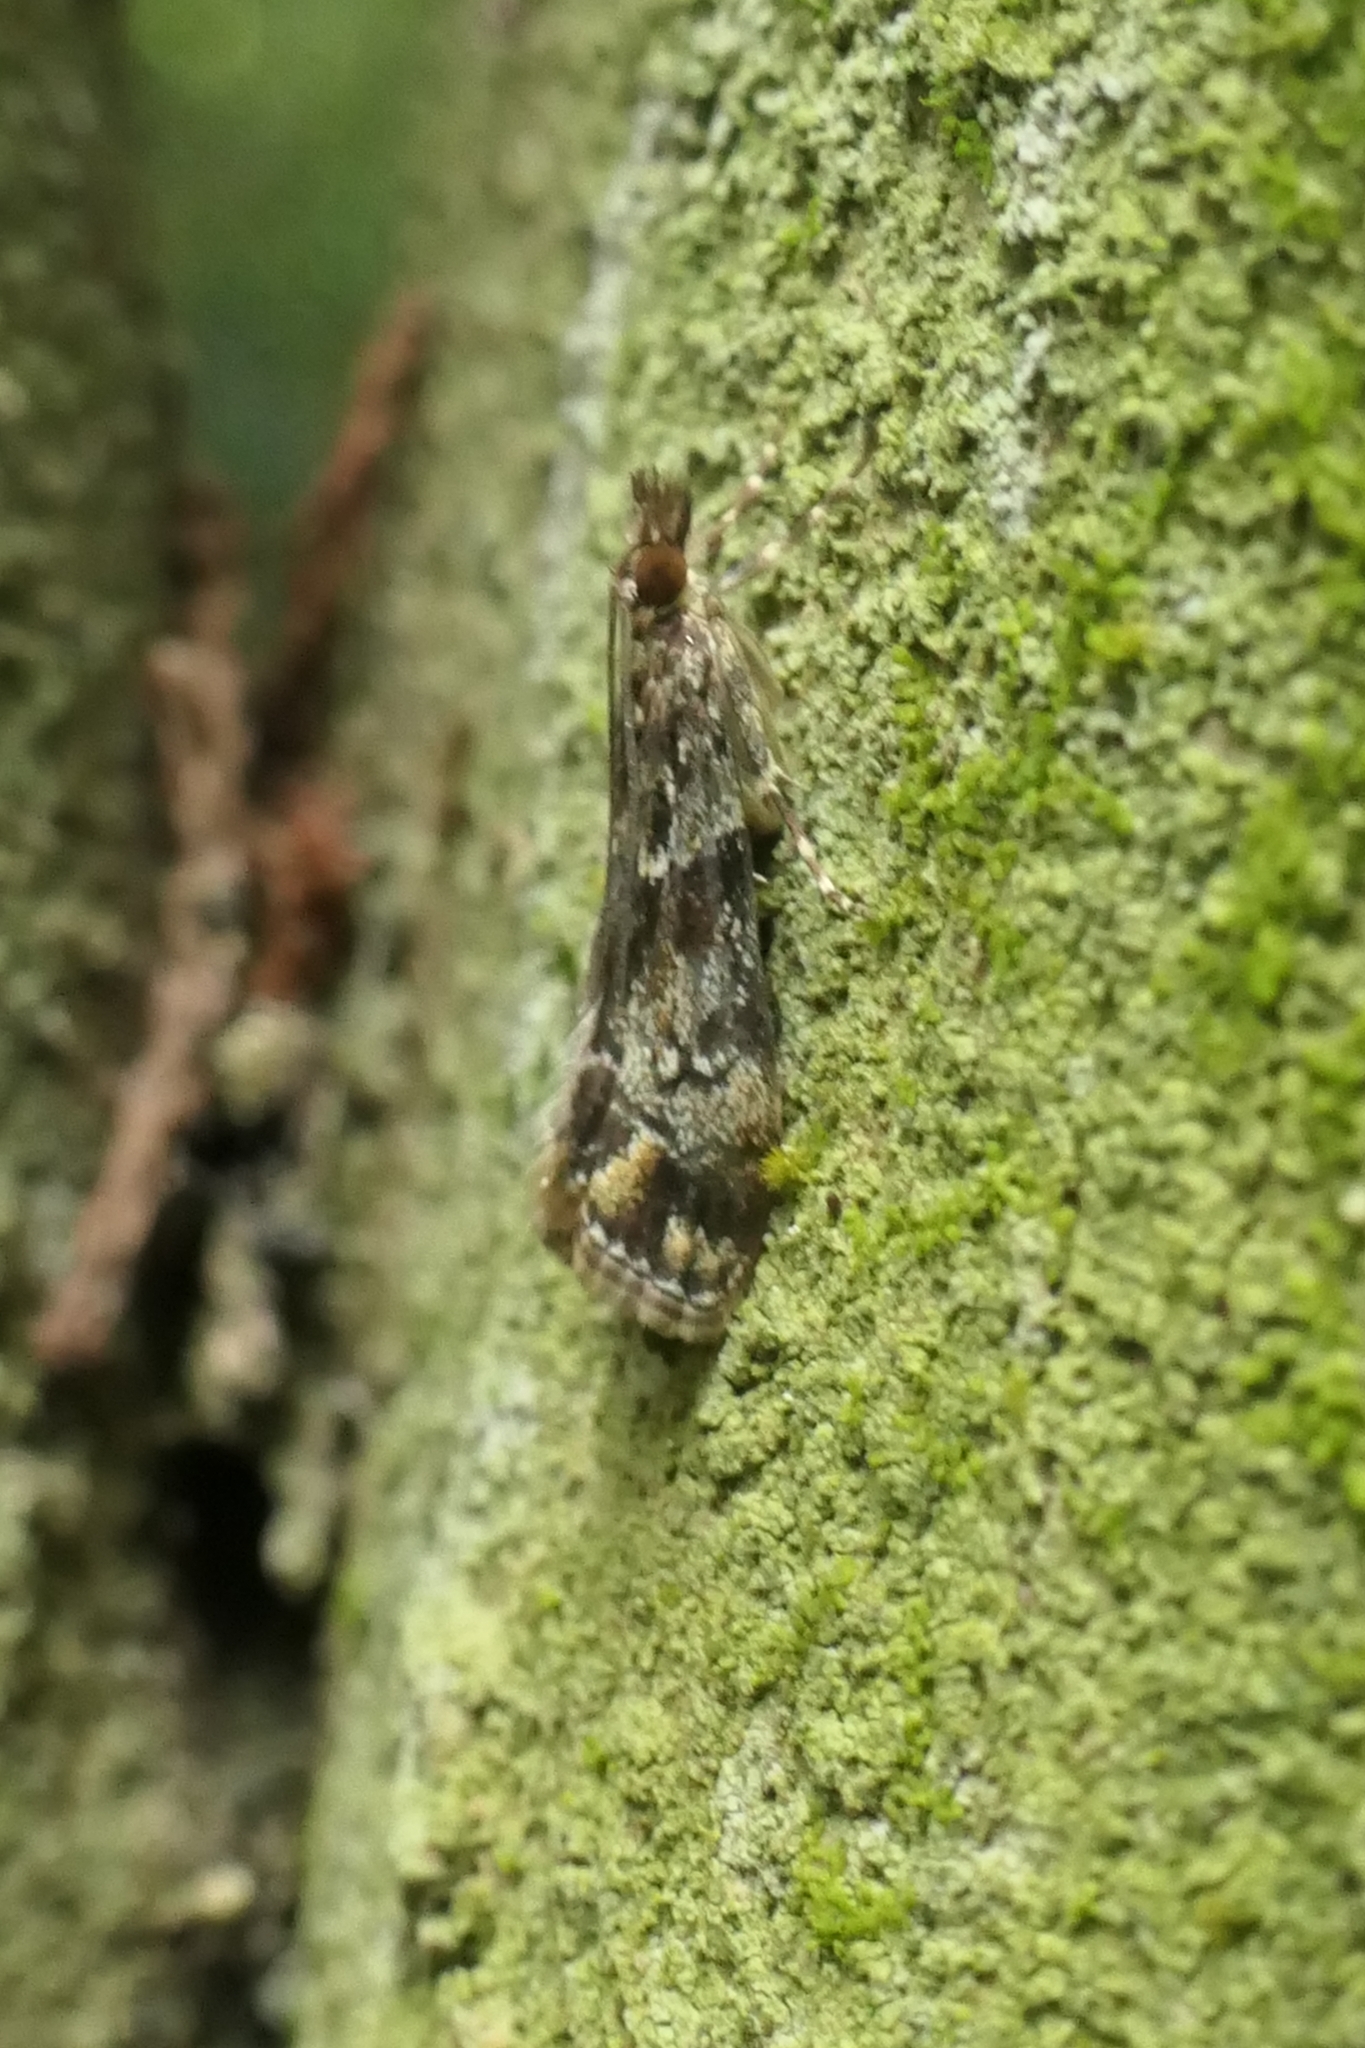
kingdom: Animalia
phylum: Arthropoda
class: Insecta
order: Lepidoptera
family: Crambidae
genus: Eudonia
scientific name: Eudonia minualis
